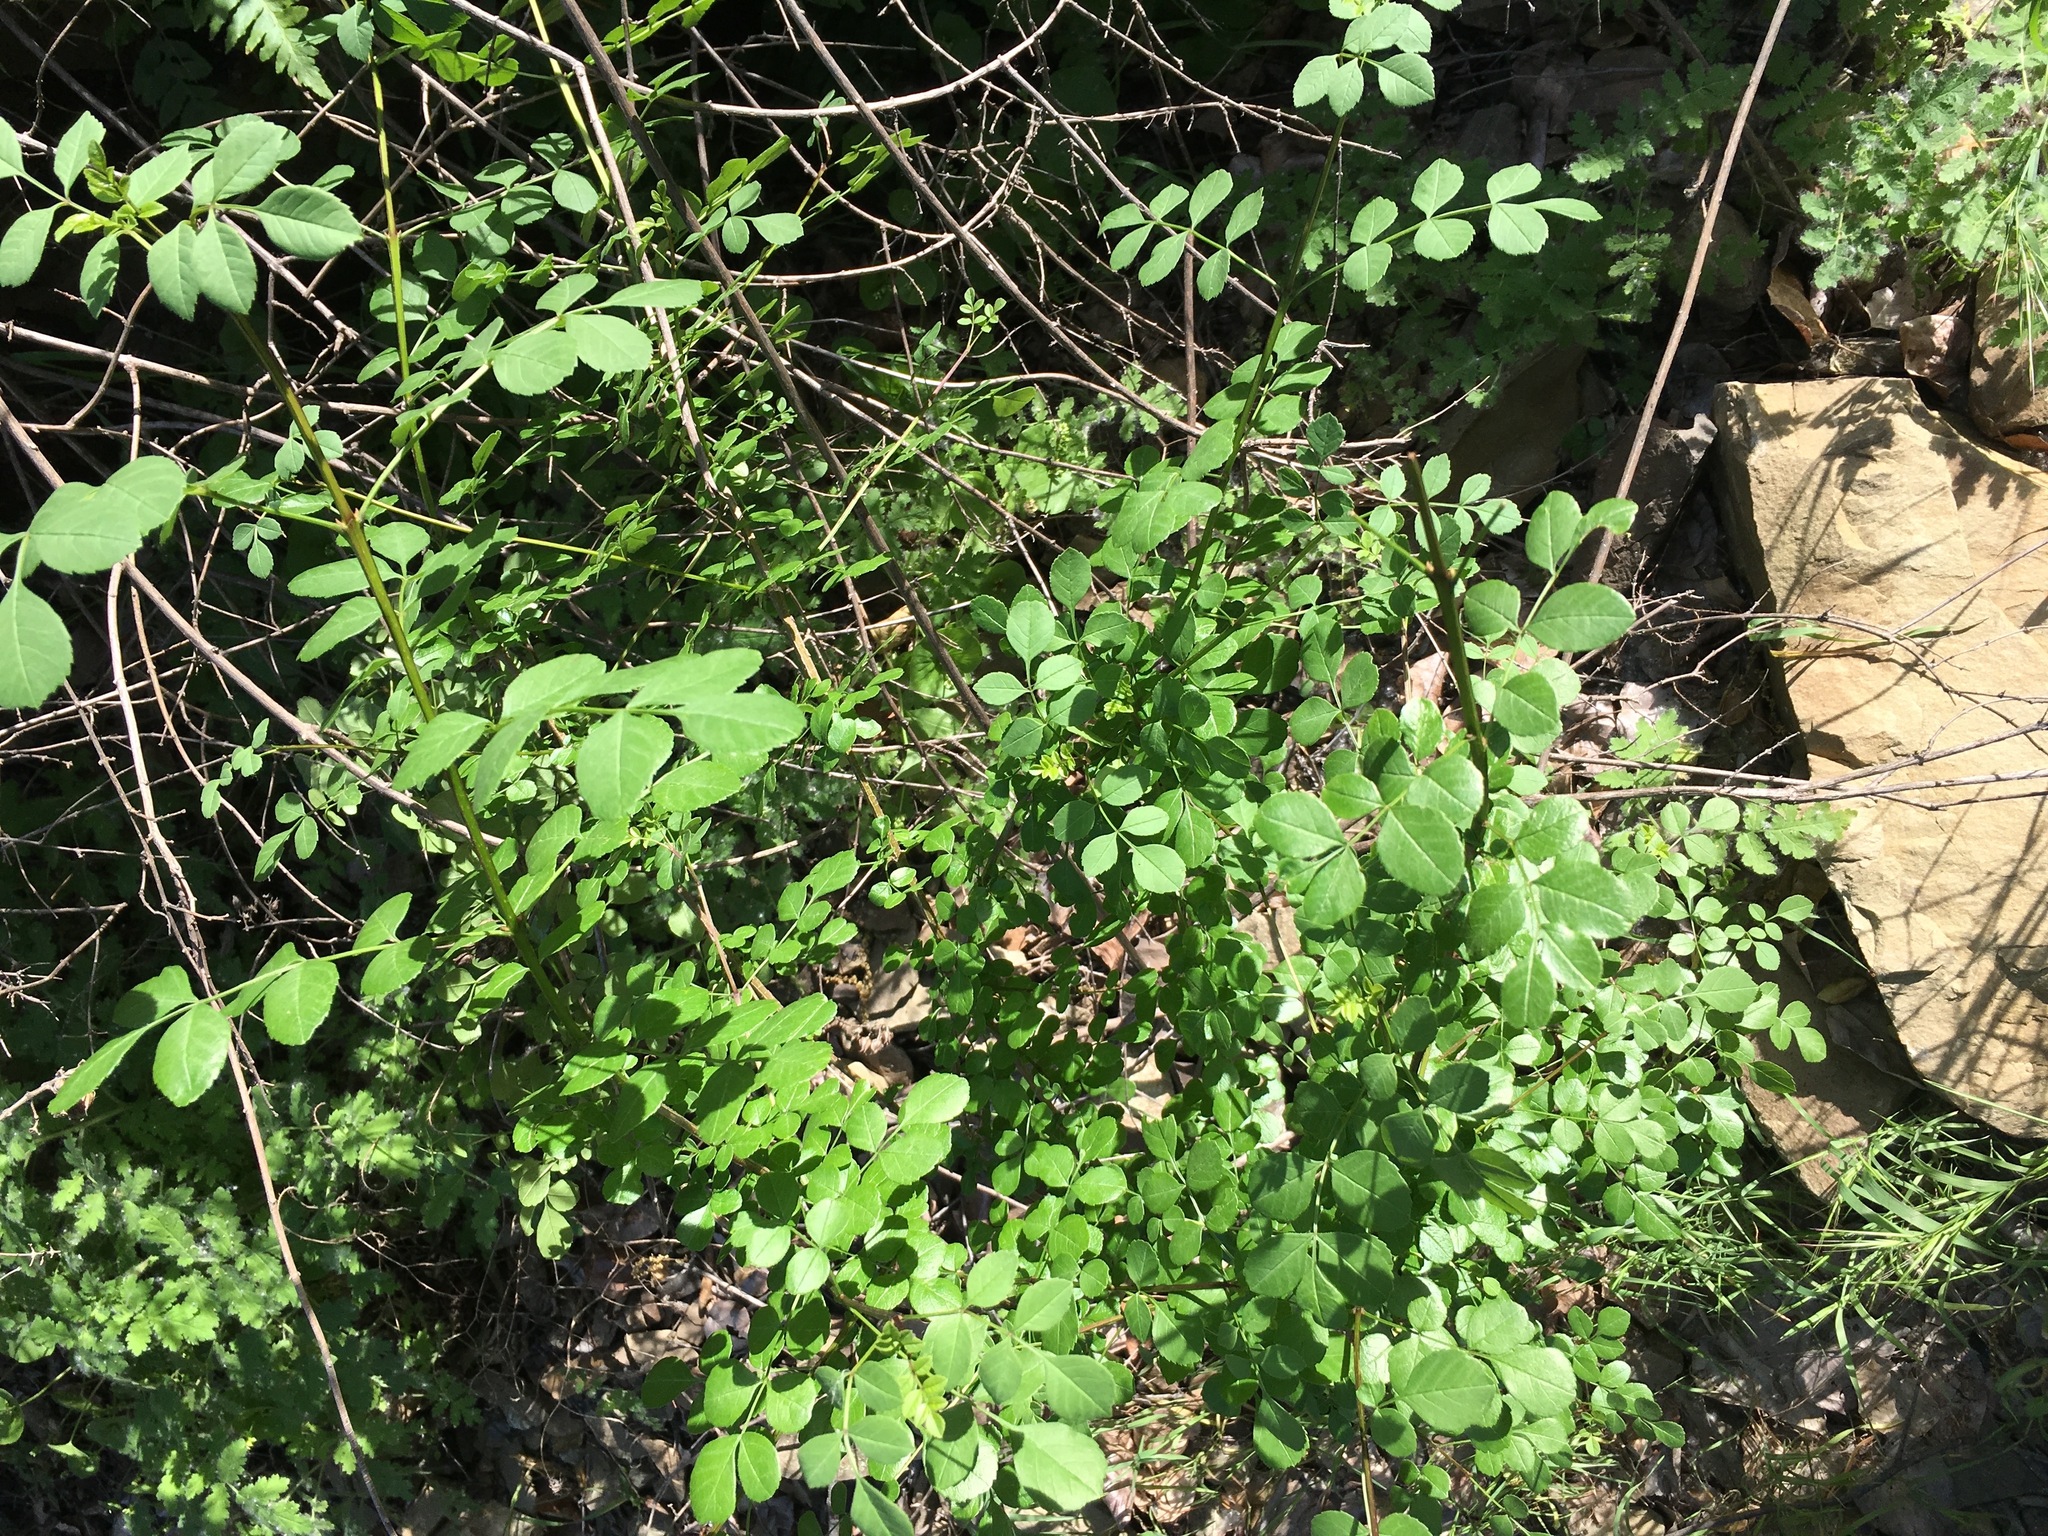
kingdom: Plantae
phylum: Tracheophyta
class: Magnoliopsida
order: Lamiales
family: Oleaceae
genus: Fraxinus
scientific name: Fraxinus dipetala
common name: California ash
